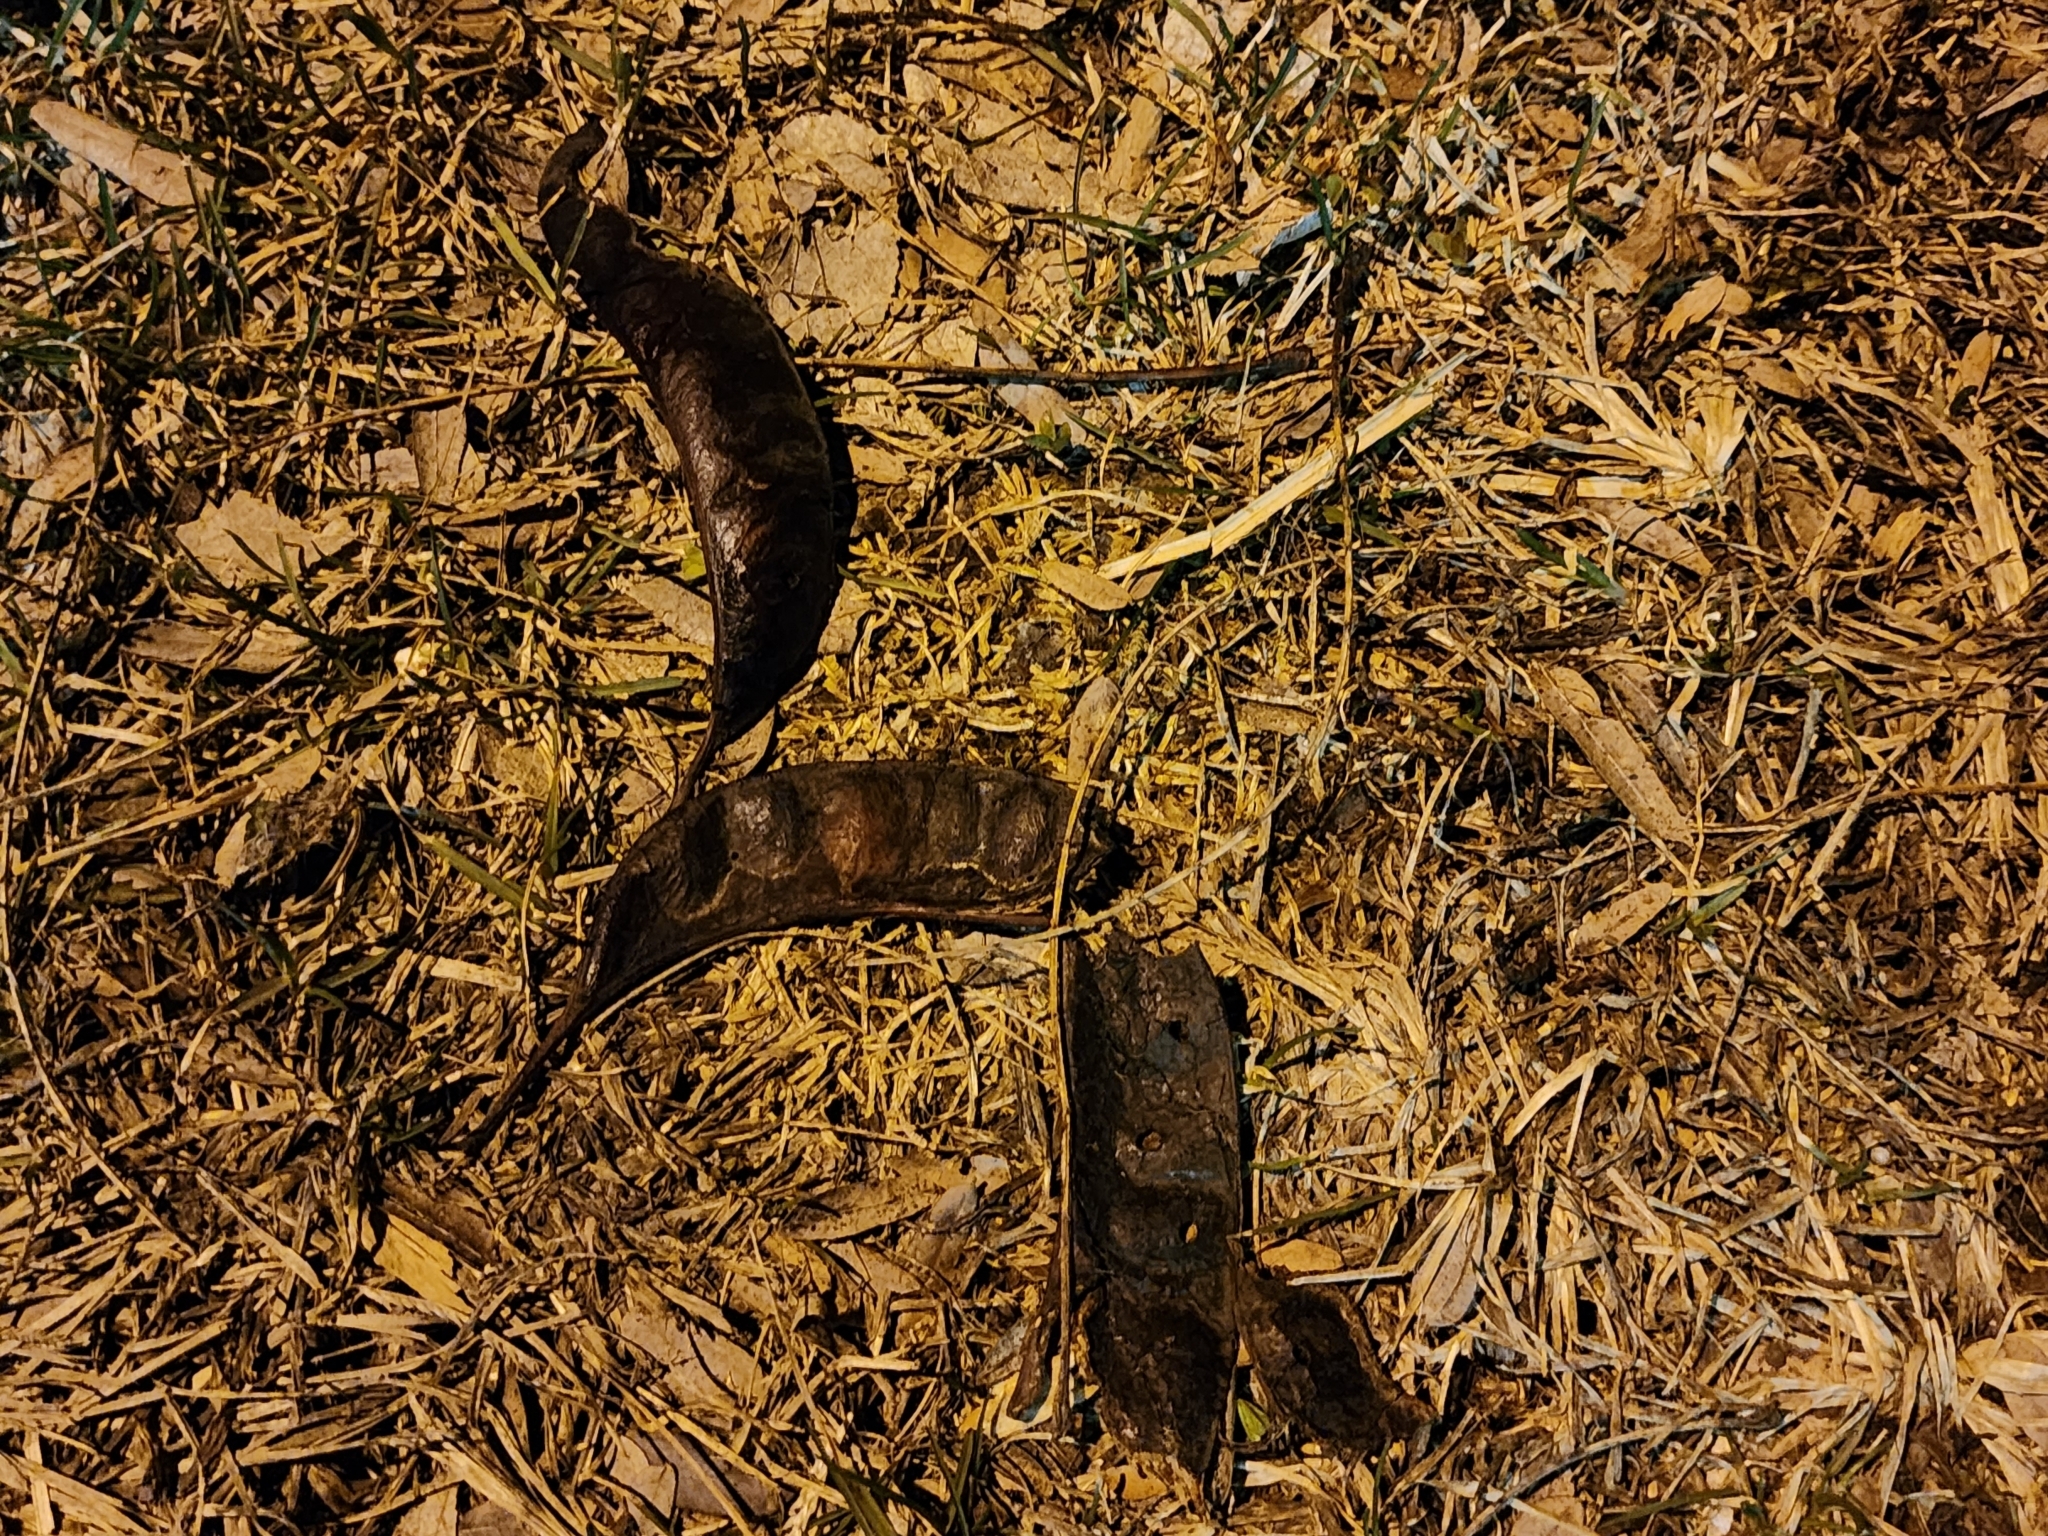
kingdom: Plantae
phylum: Tracheophyta
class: Magnoliopsida
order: Fabales
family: Fabaceae
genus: Gleditsia
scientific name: Gleditsia triacanthos
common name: Common honeylocust
